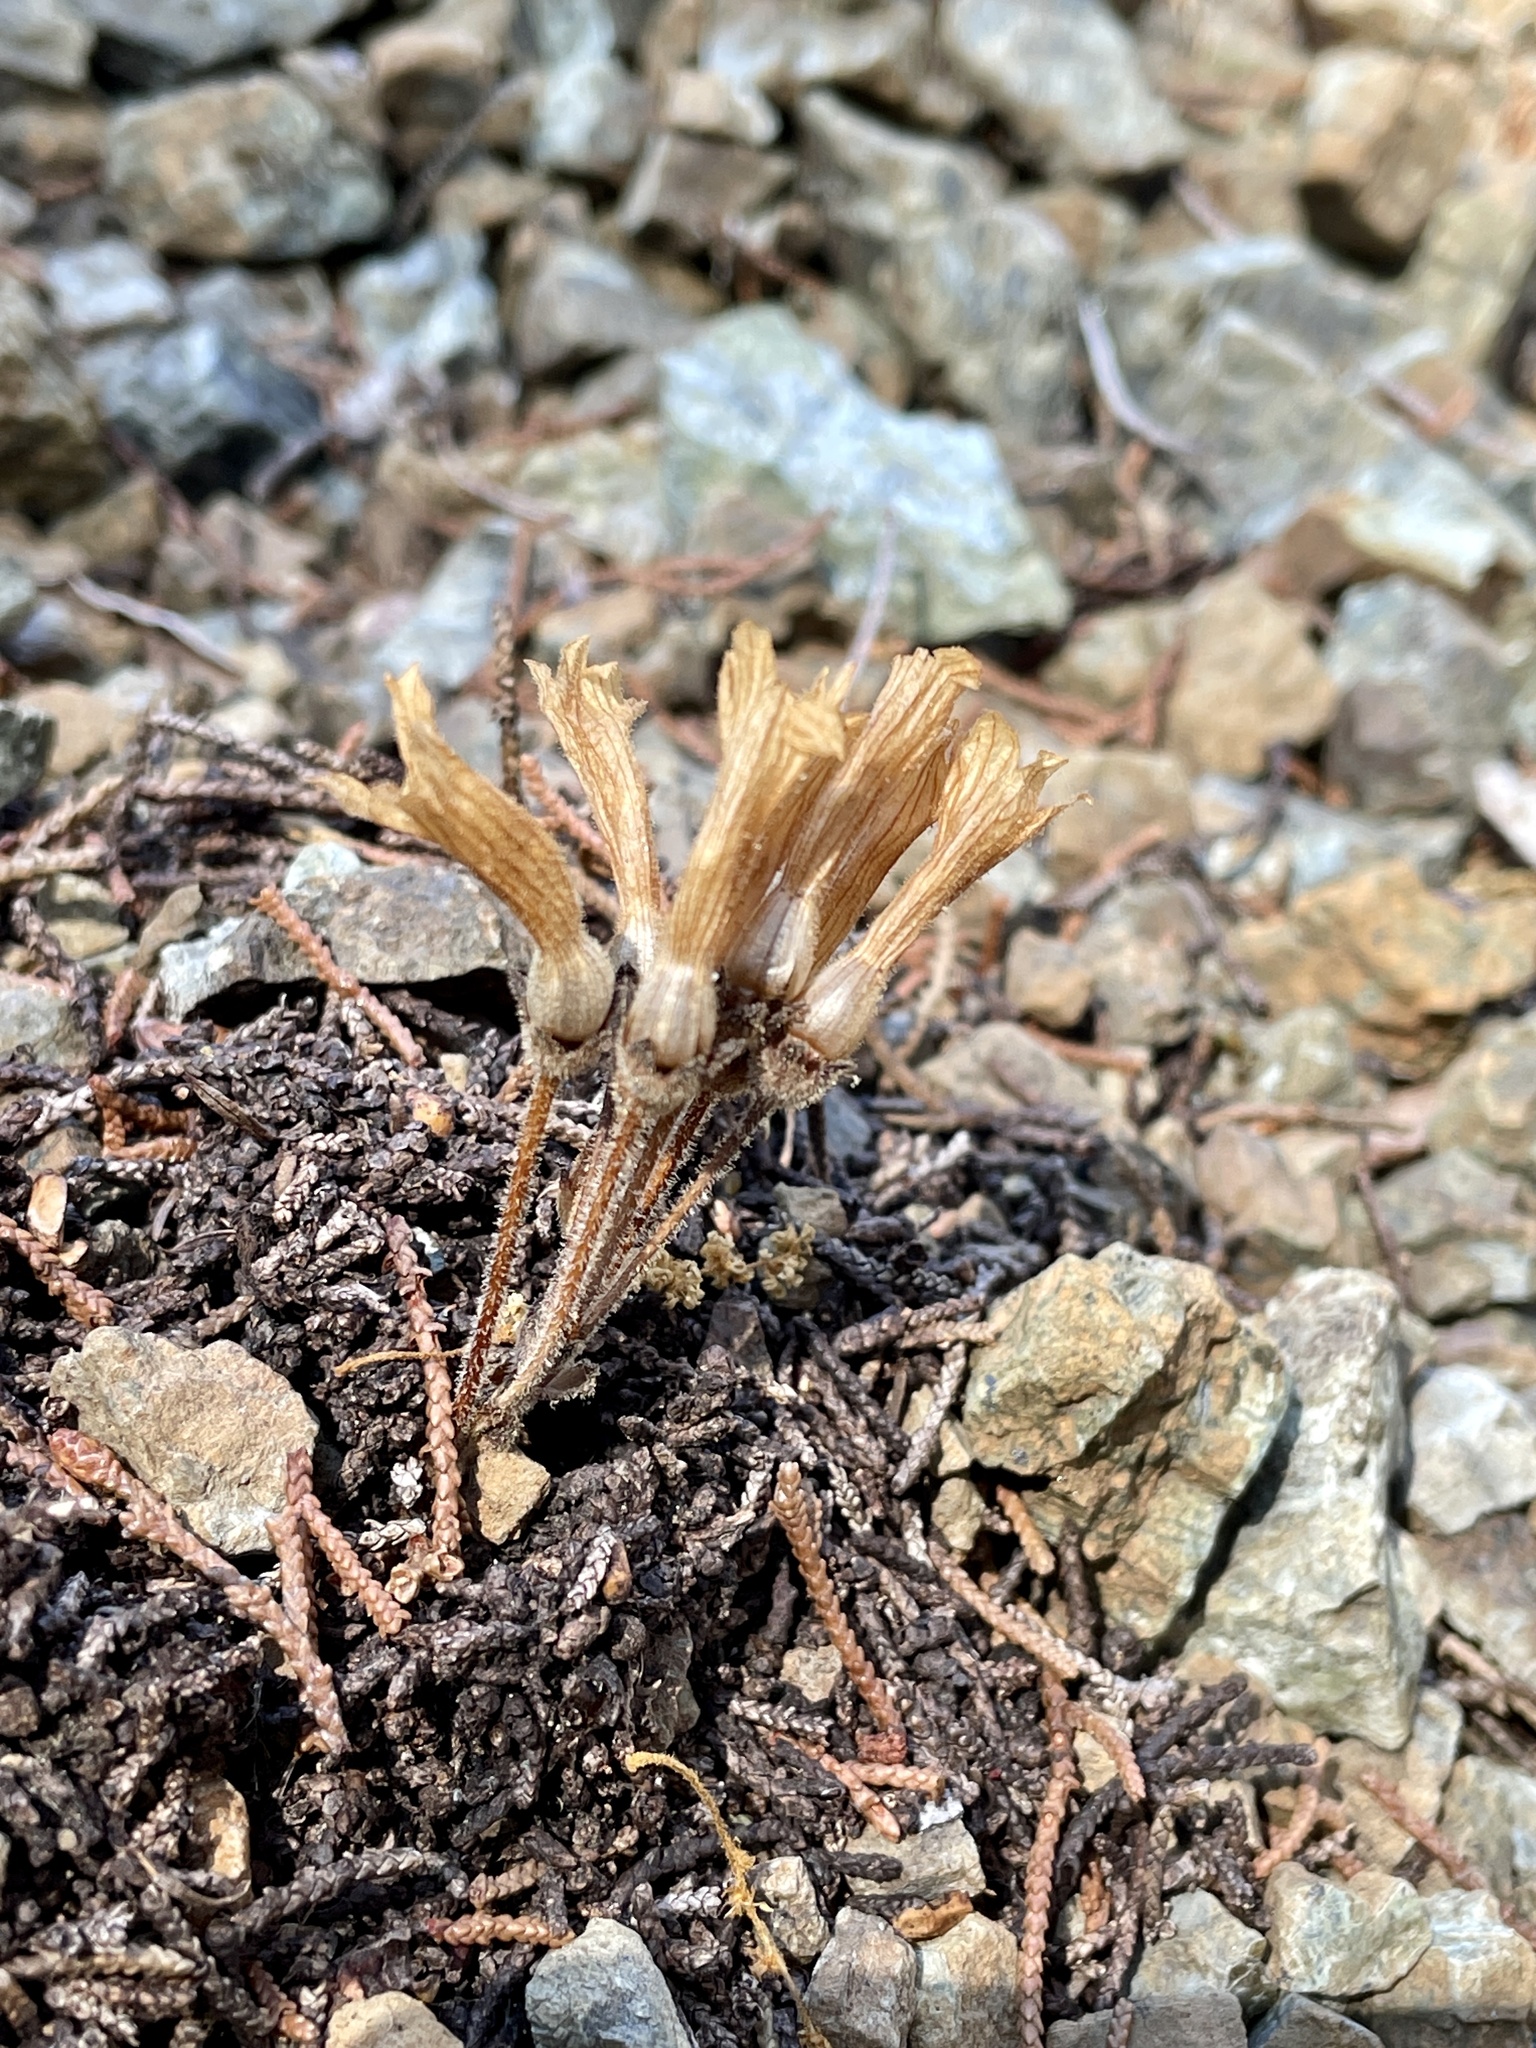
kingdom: Plantae
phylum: Tracheophyta
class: Magnoliopsida
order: Lamiales
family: Orobanchaceae
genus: Aphyllon
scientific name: Aphyllon franciscanum
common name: San francisco broomrape
